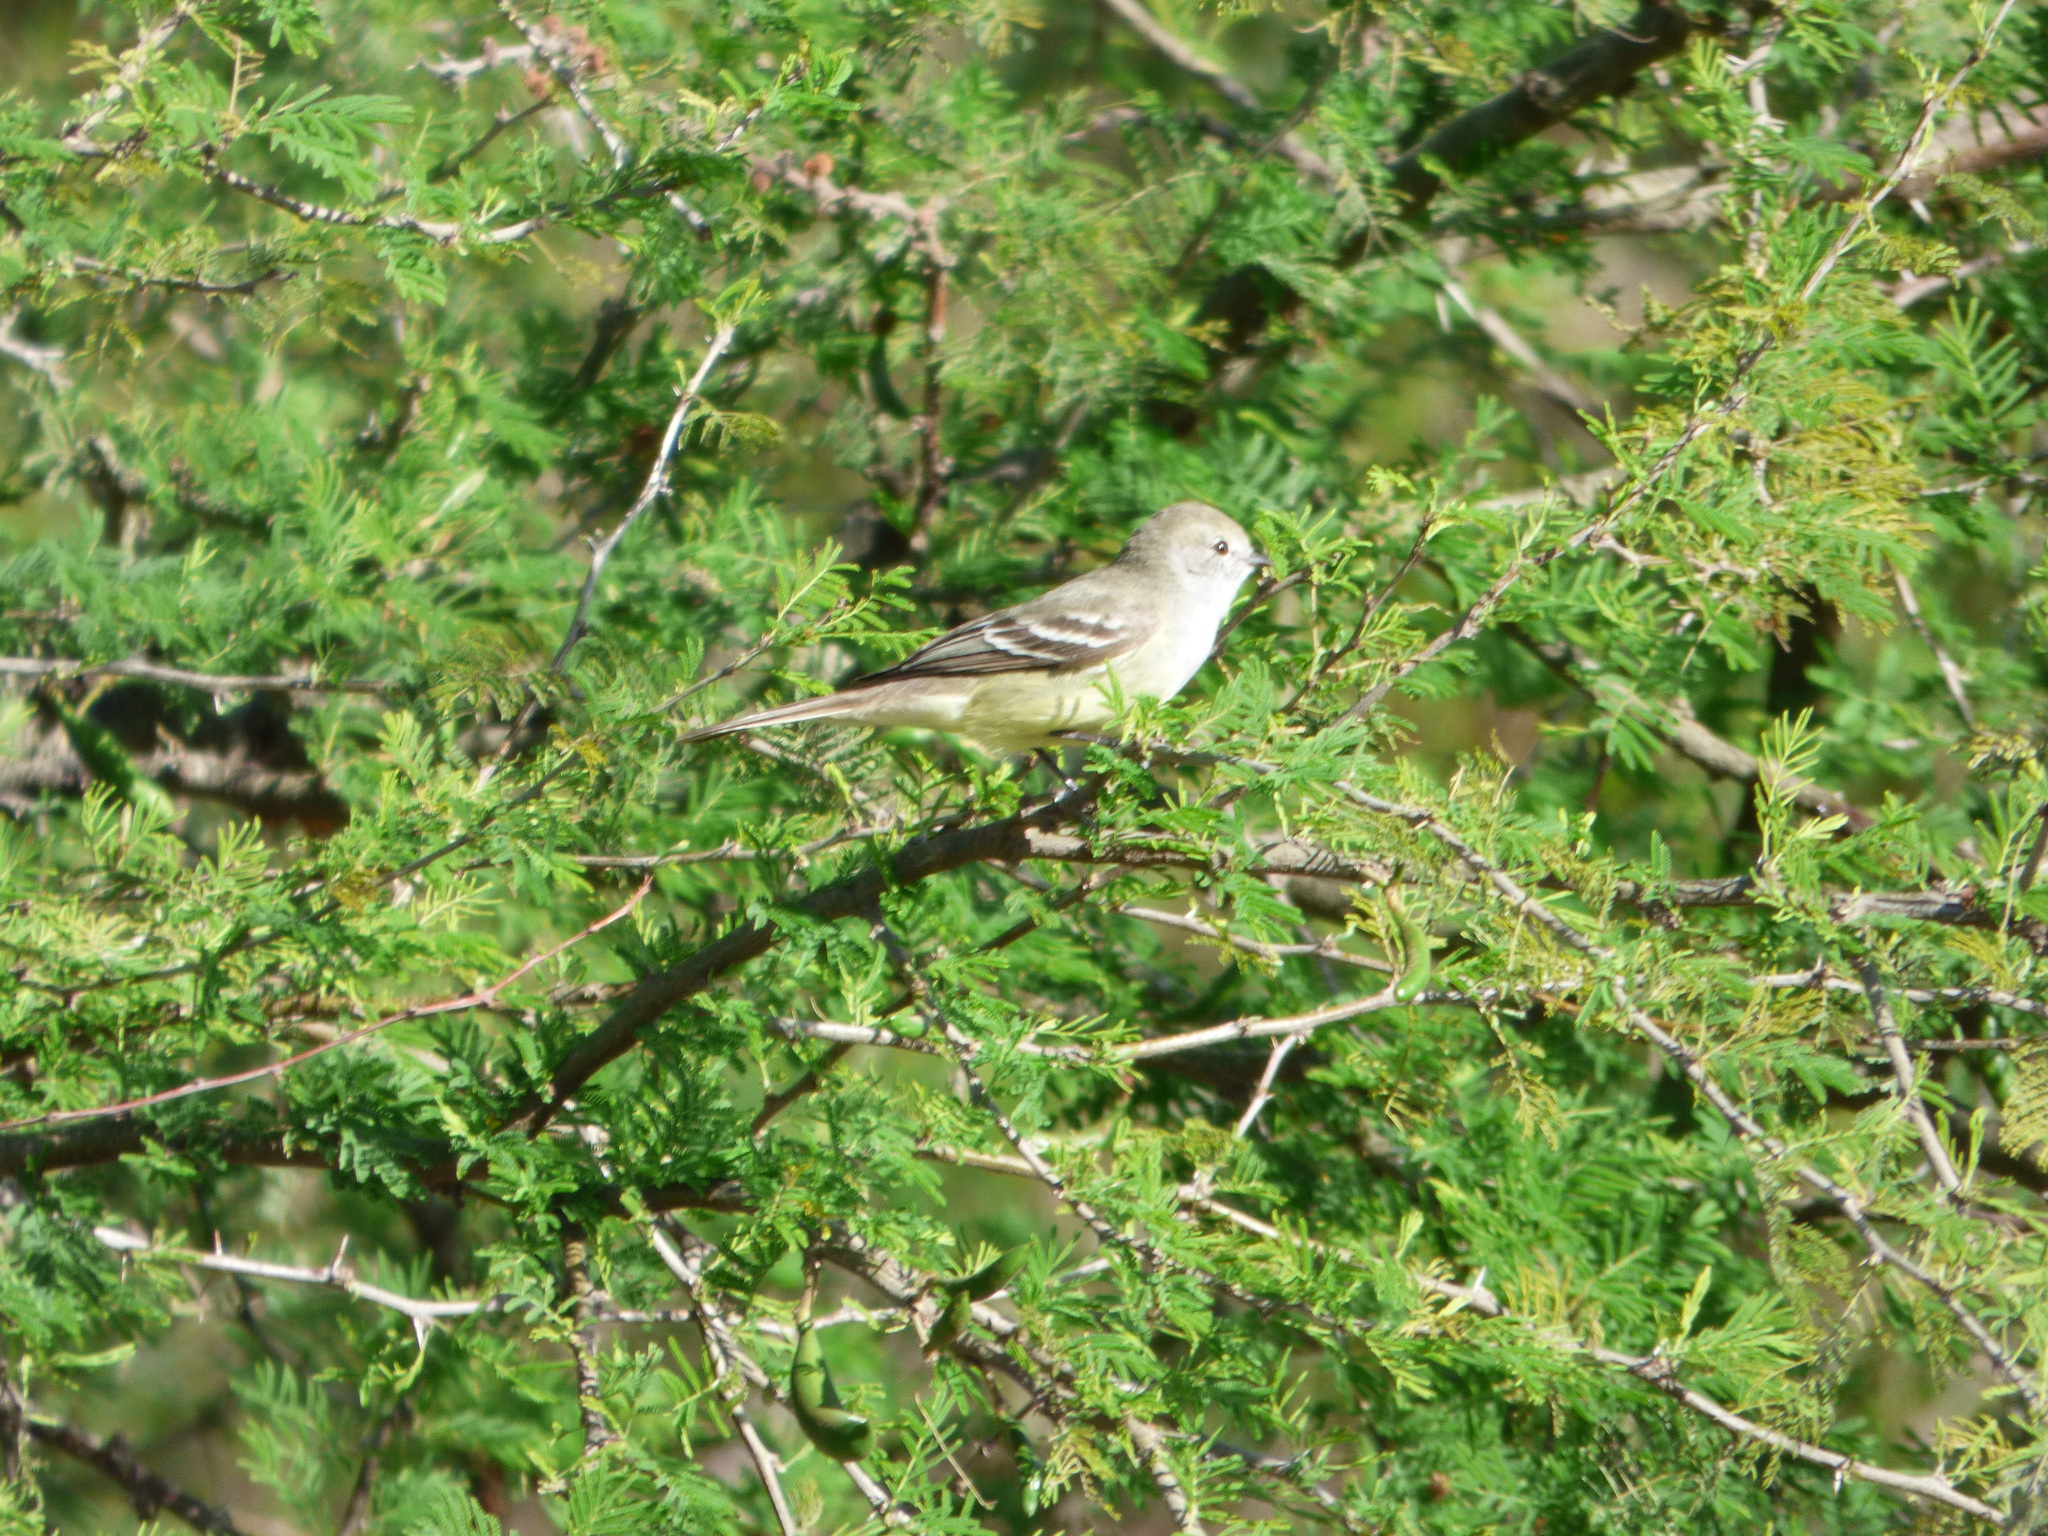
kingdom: Animalia
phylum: Chordata
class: Aves
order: Passeriformes
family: Tyrannidae
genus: Sublegatus
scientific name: Sublegatus modestus
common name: Southern scrub flycatcher
